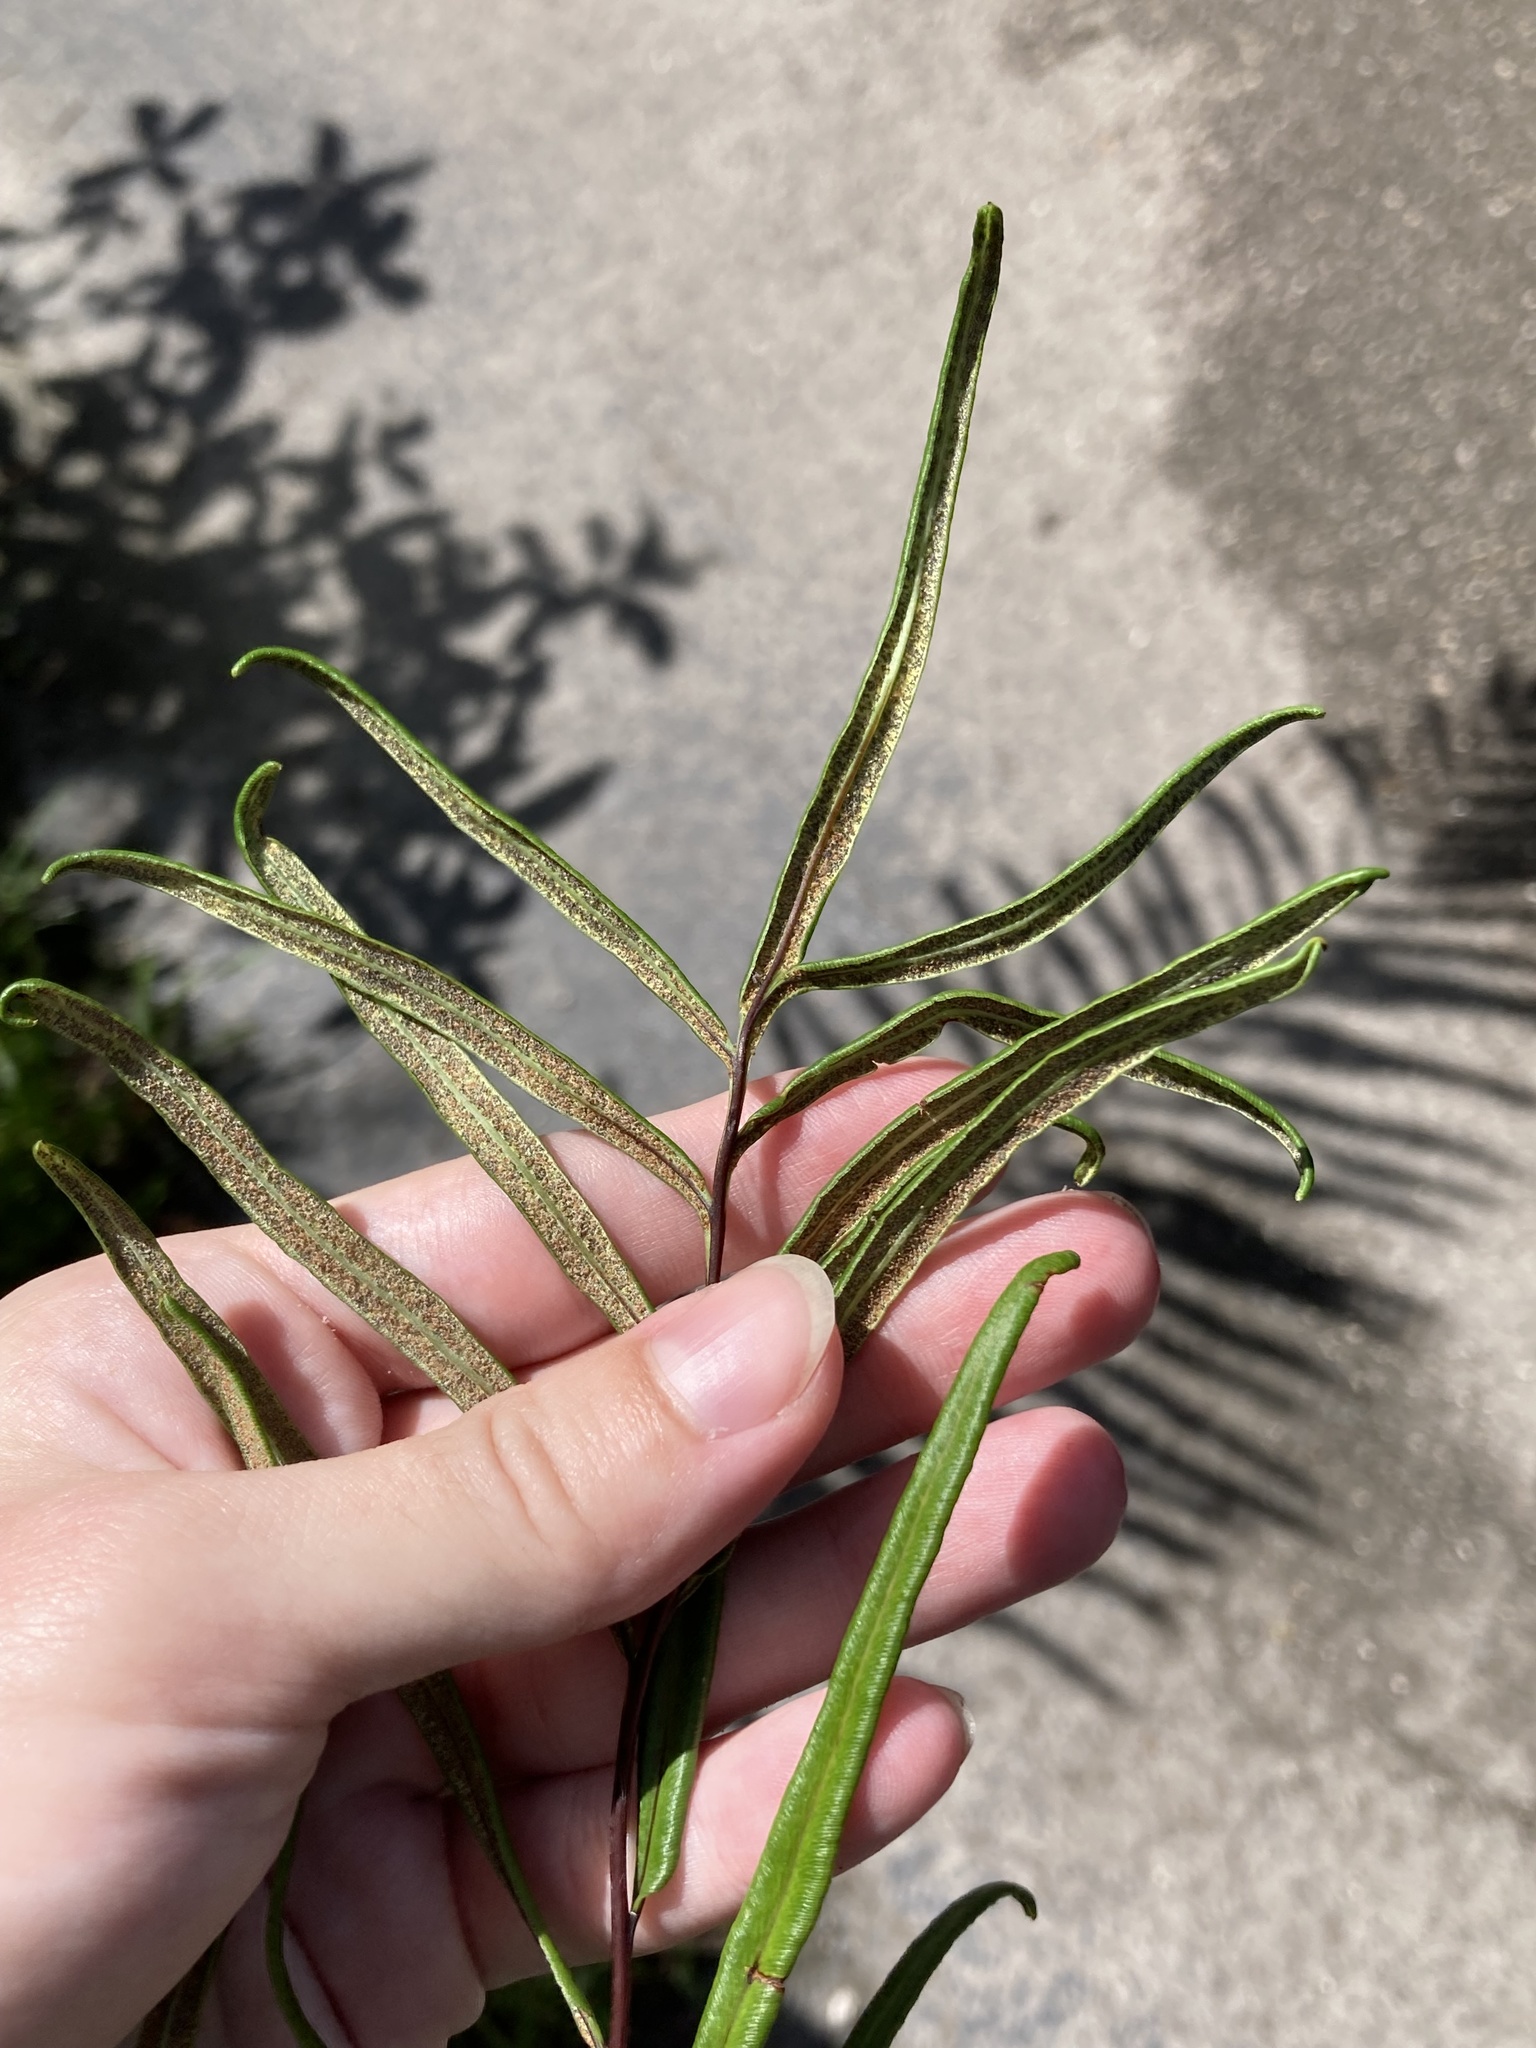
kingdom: Plantae
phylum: Tracheophyta
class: Polypodiopsida
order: Polypodiales
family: Pteridaceae
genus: Pityrogramma
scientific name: Pityrogramma trifoliata
